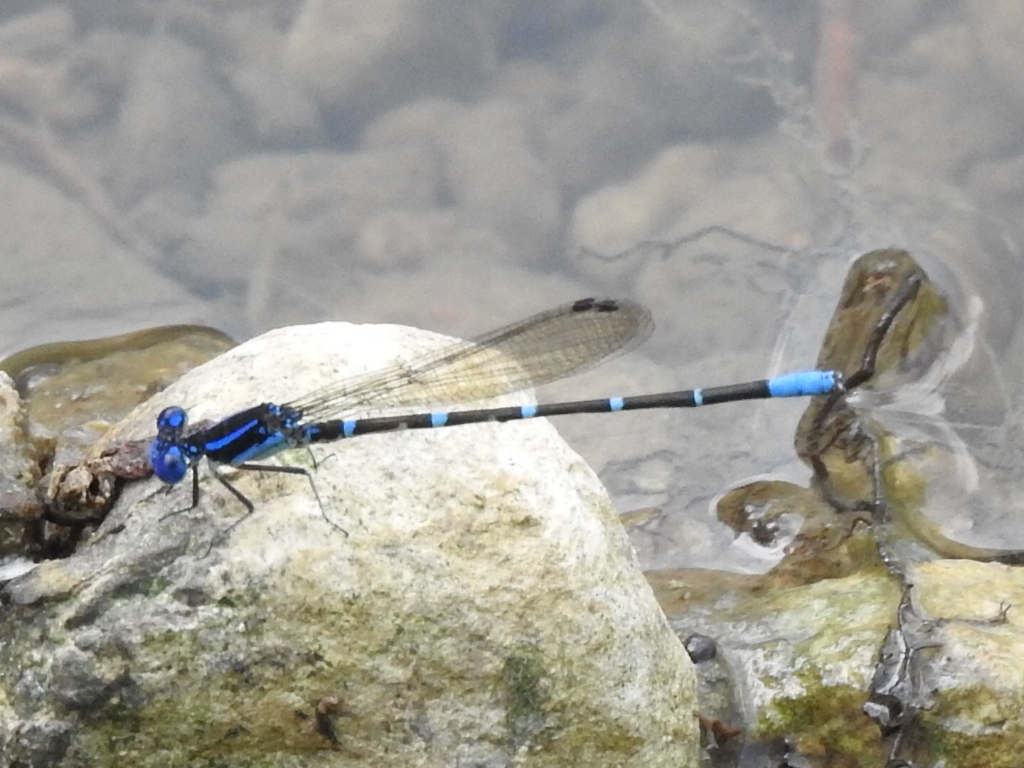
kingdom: Animalia
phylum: Arthropoda
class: Insecta
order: Odonata
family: Coenagrionidae
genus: Argia
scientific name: Argia sedula
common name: Blue-ringed dancer
